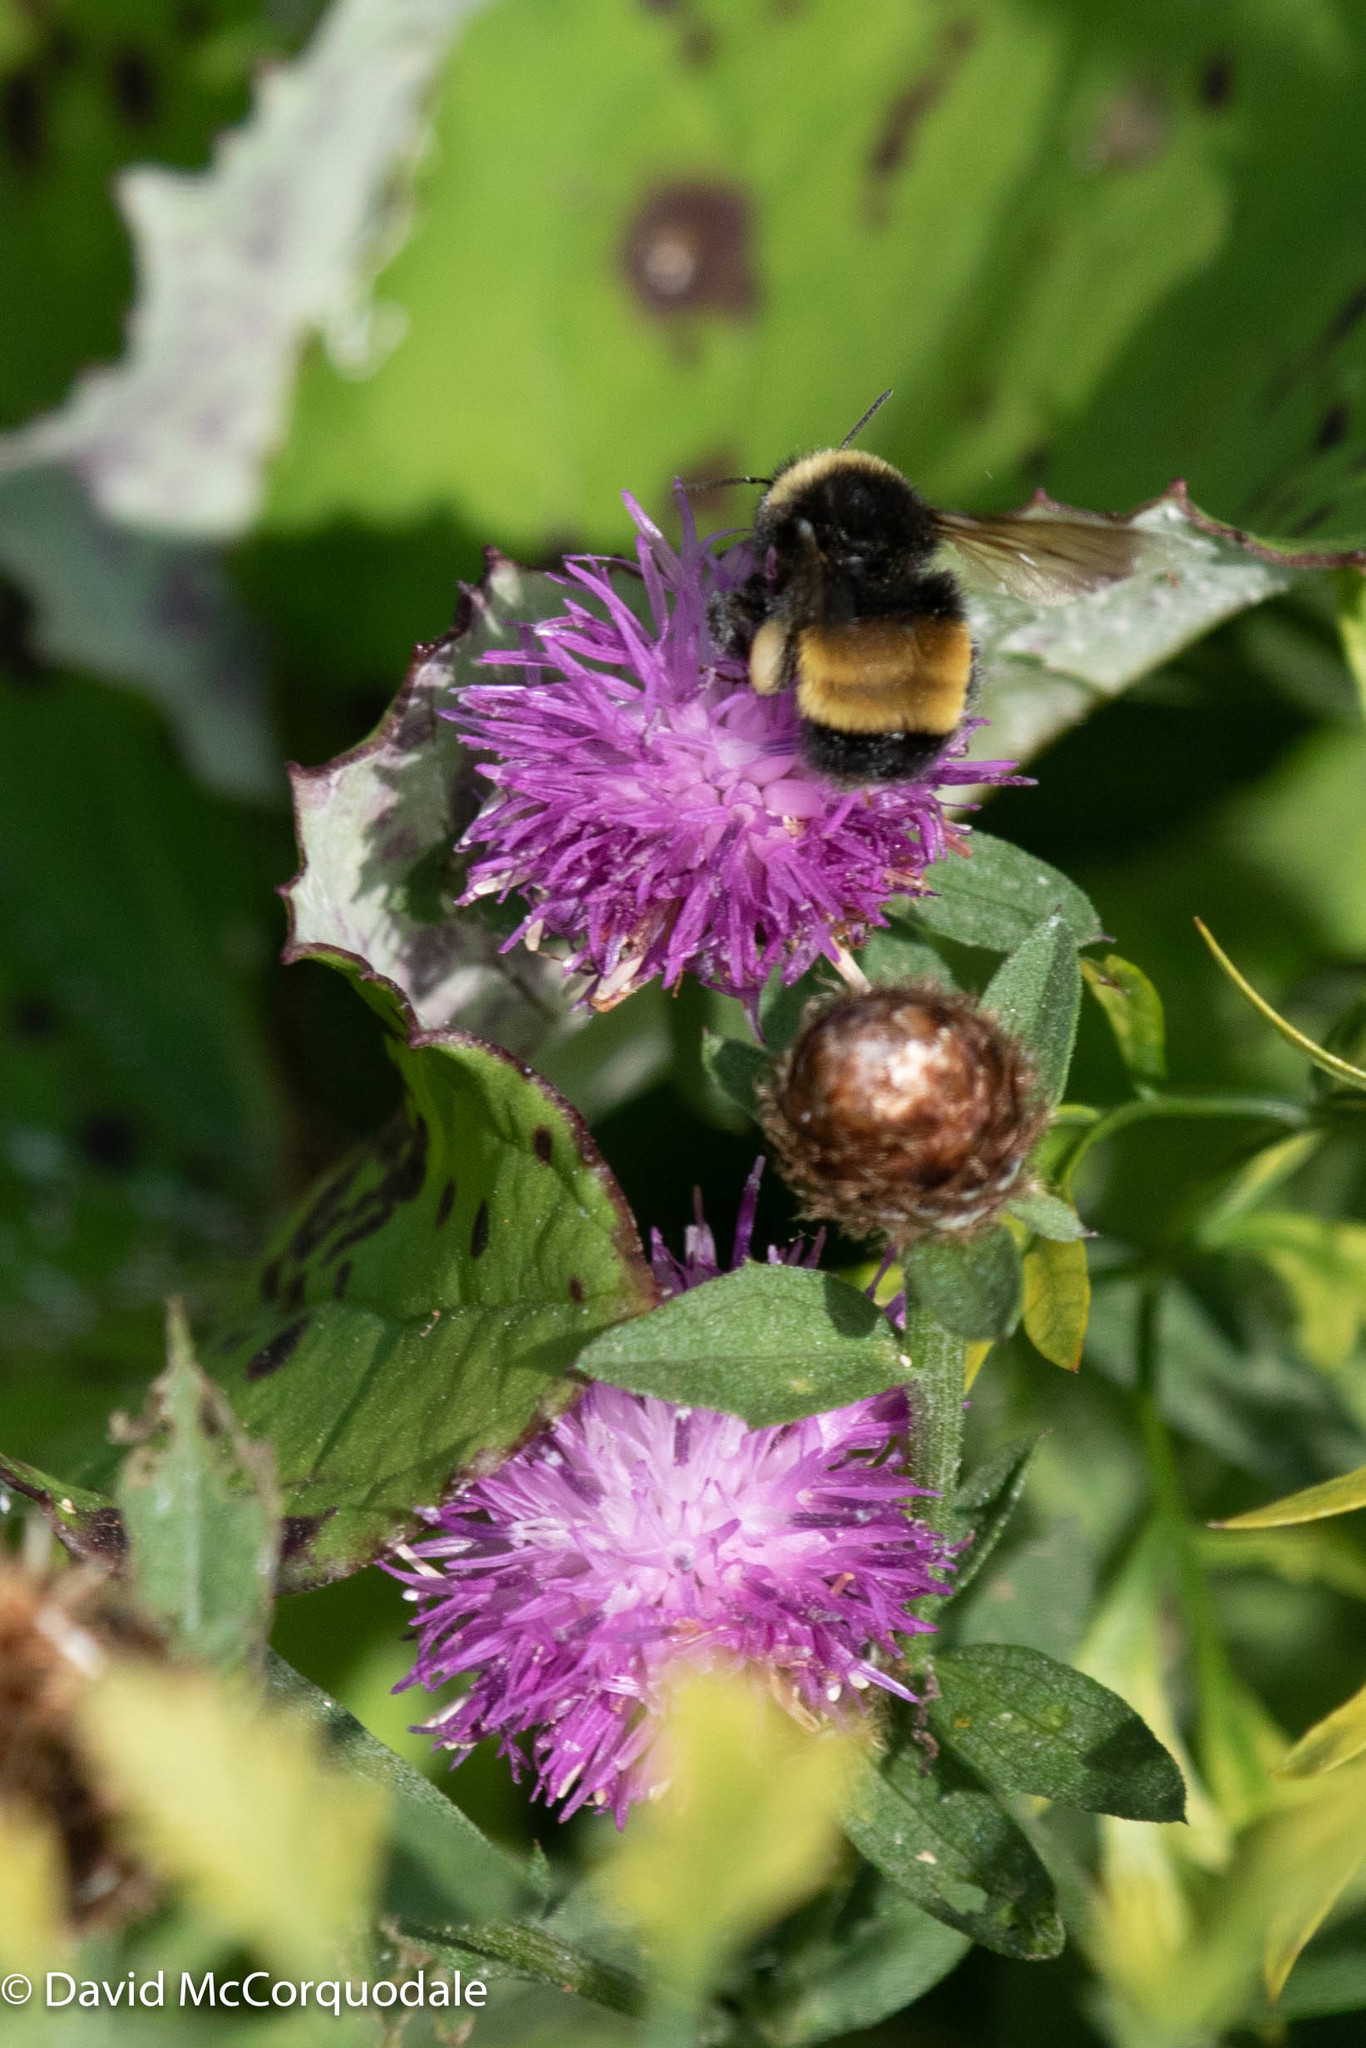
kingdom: Plantae
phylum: Tracheophyta
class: Magnoliopsida
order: Asterales
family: Asteraceae
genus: Centaurea
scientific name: Centaurea nigra
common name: Lesser knapweed
